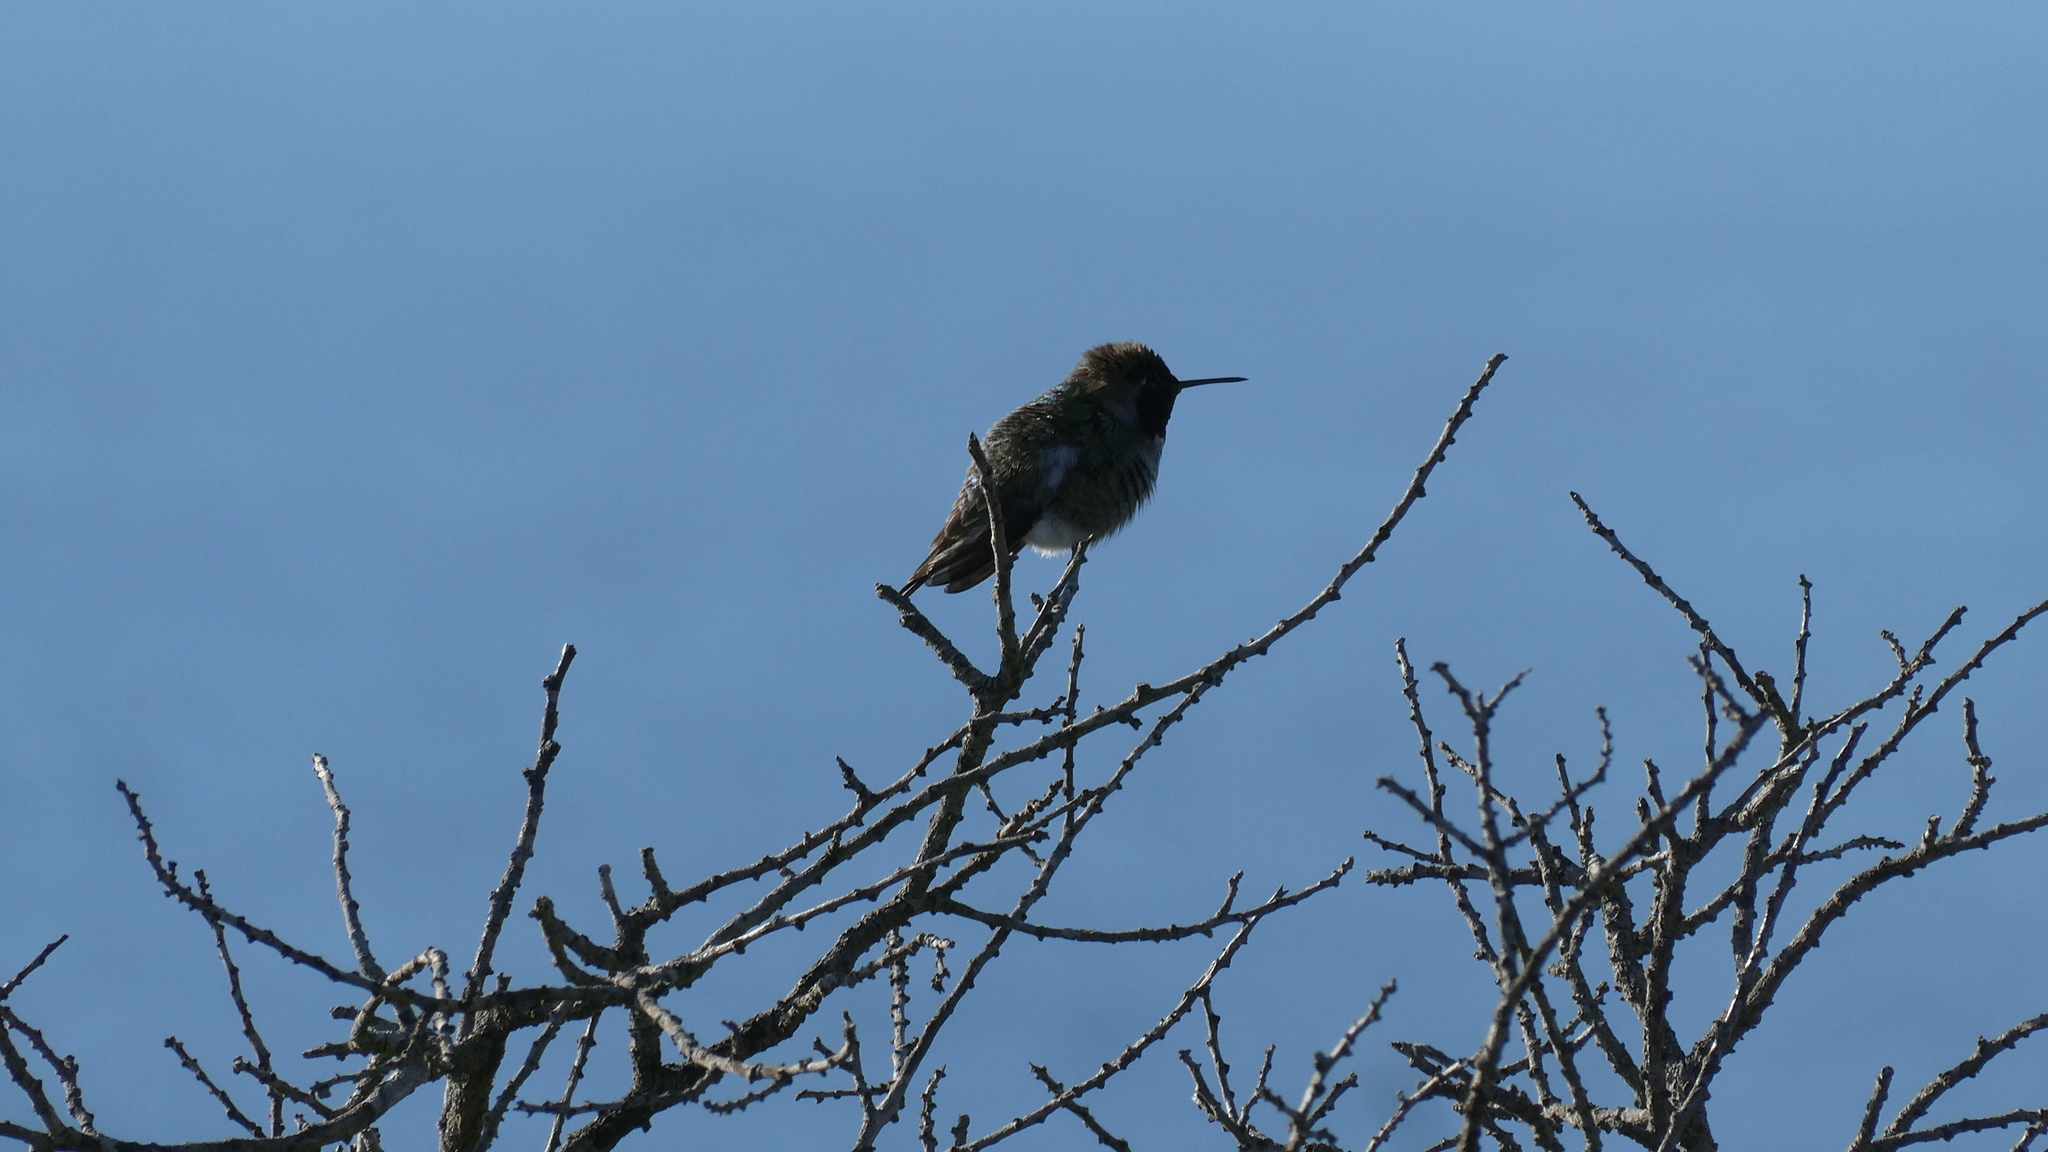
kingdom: Animalia
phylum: Chordata
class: Aves
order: Apodiformes
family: Trochilidae
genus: Calypte
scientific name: Calypte anna
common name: Anna's hummingbird
